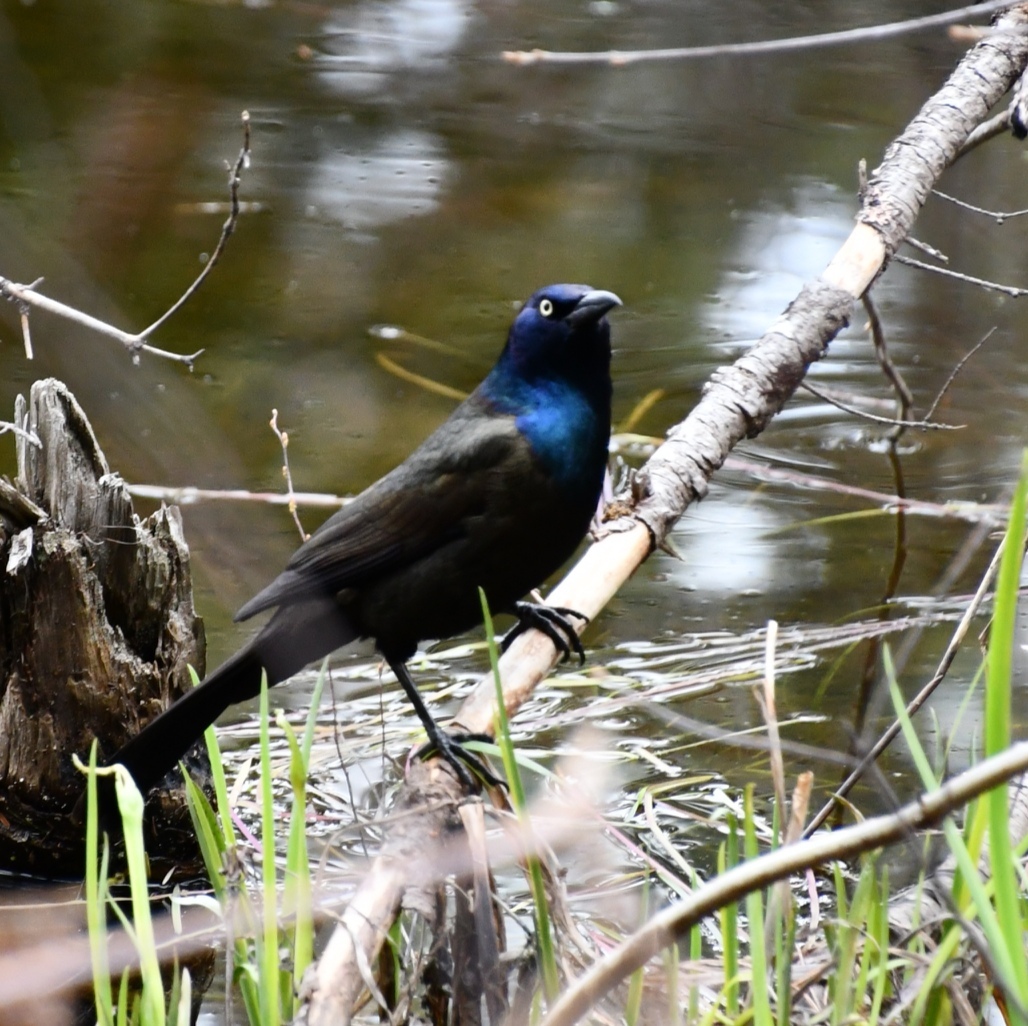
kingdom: Animalia
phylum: Chordata
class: Aves
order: Passeriformes
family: Icteridae
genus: Quiscalus
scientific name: Quiscalus quiscula
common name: Common grackle
